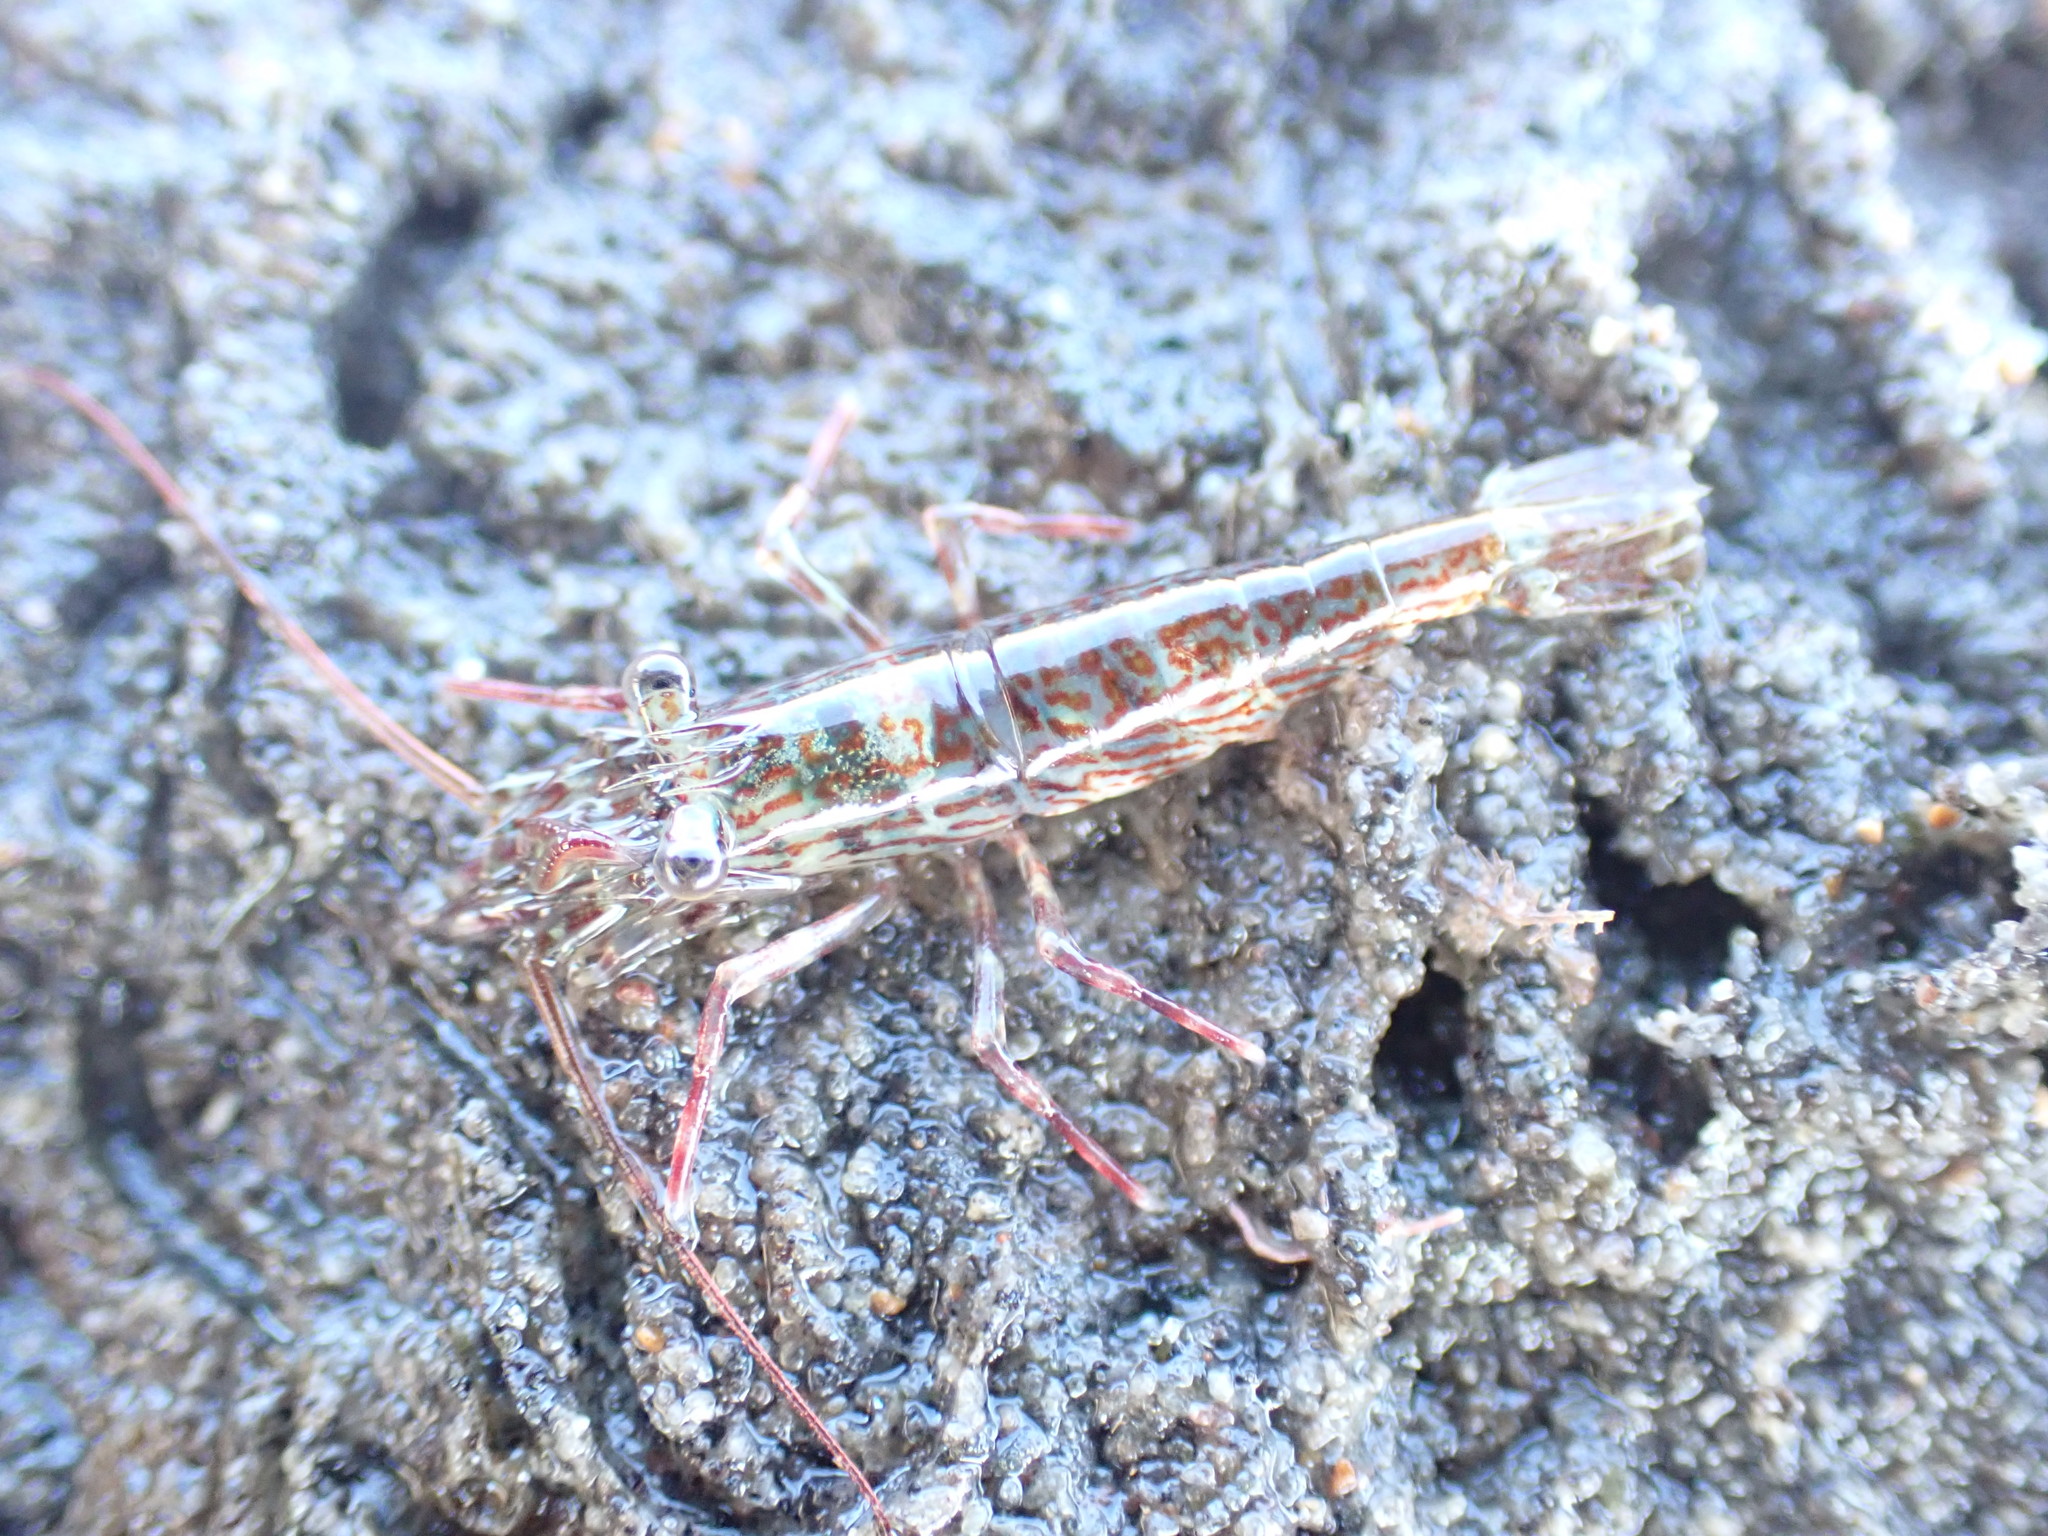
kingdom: Animalia
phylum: Arthropoda
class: Malacostraca
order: Decapoda
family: Hippolytidae
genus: Alope
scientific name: Alope spinifrons
